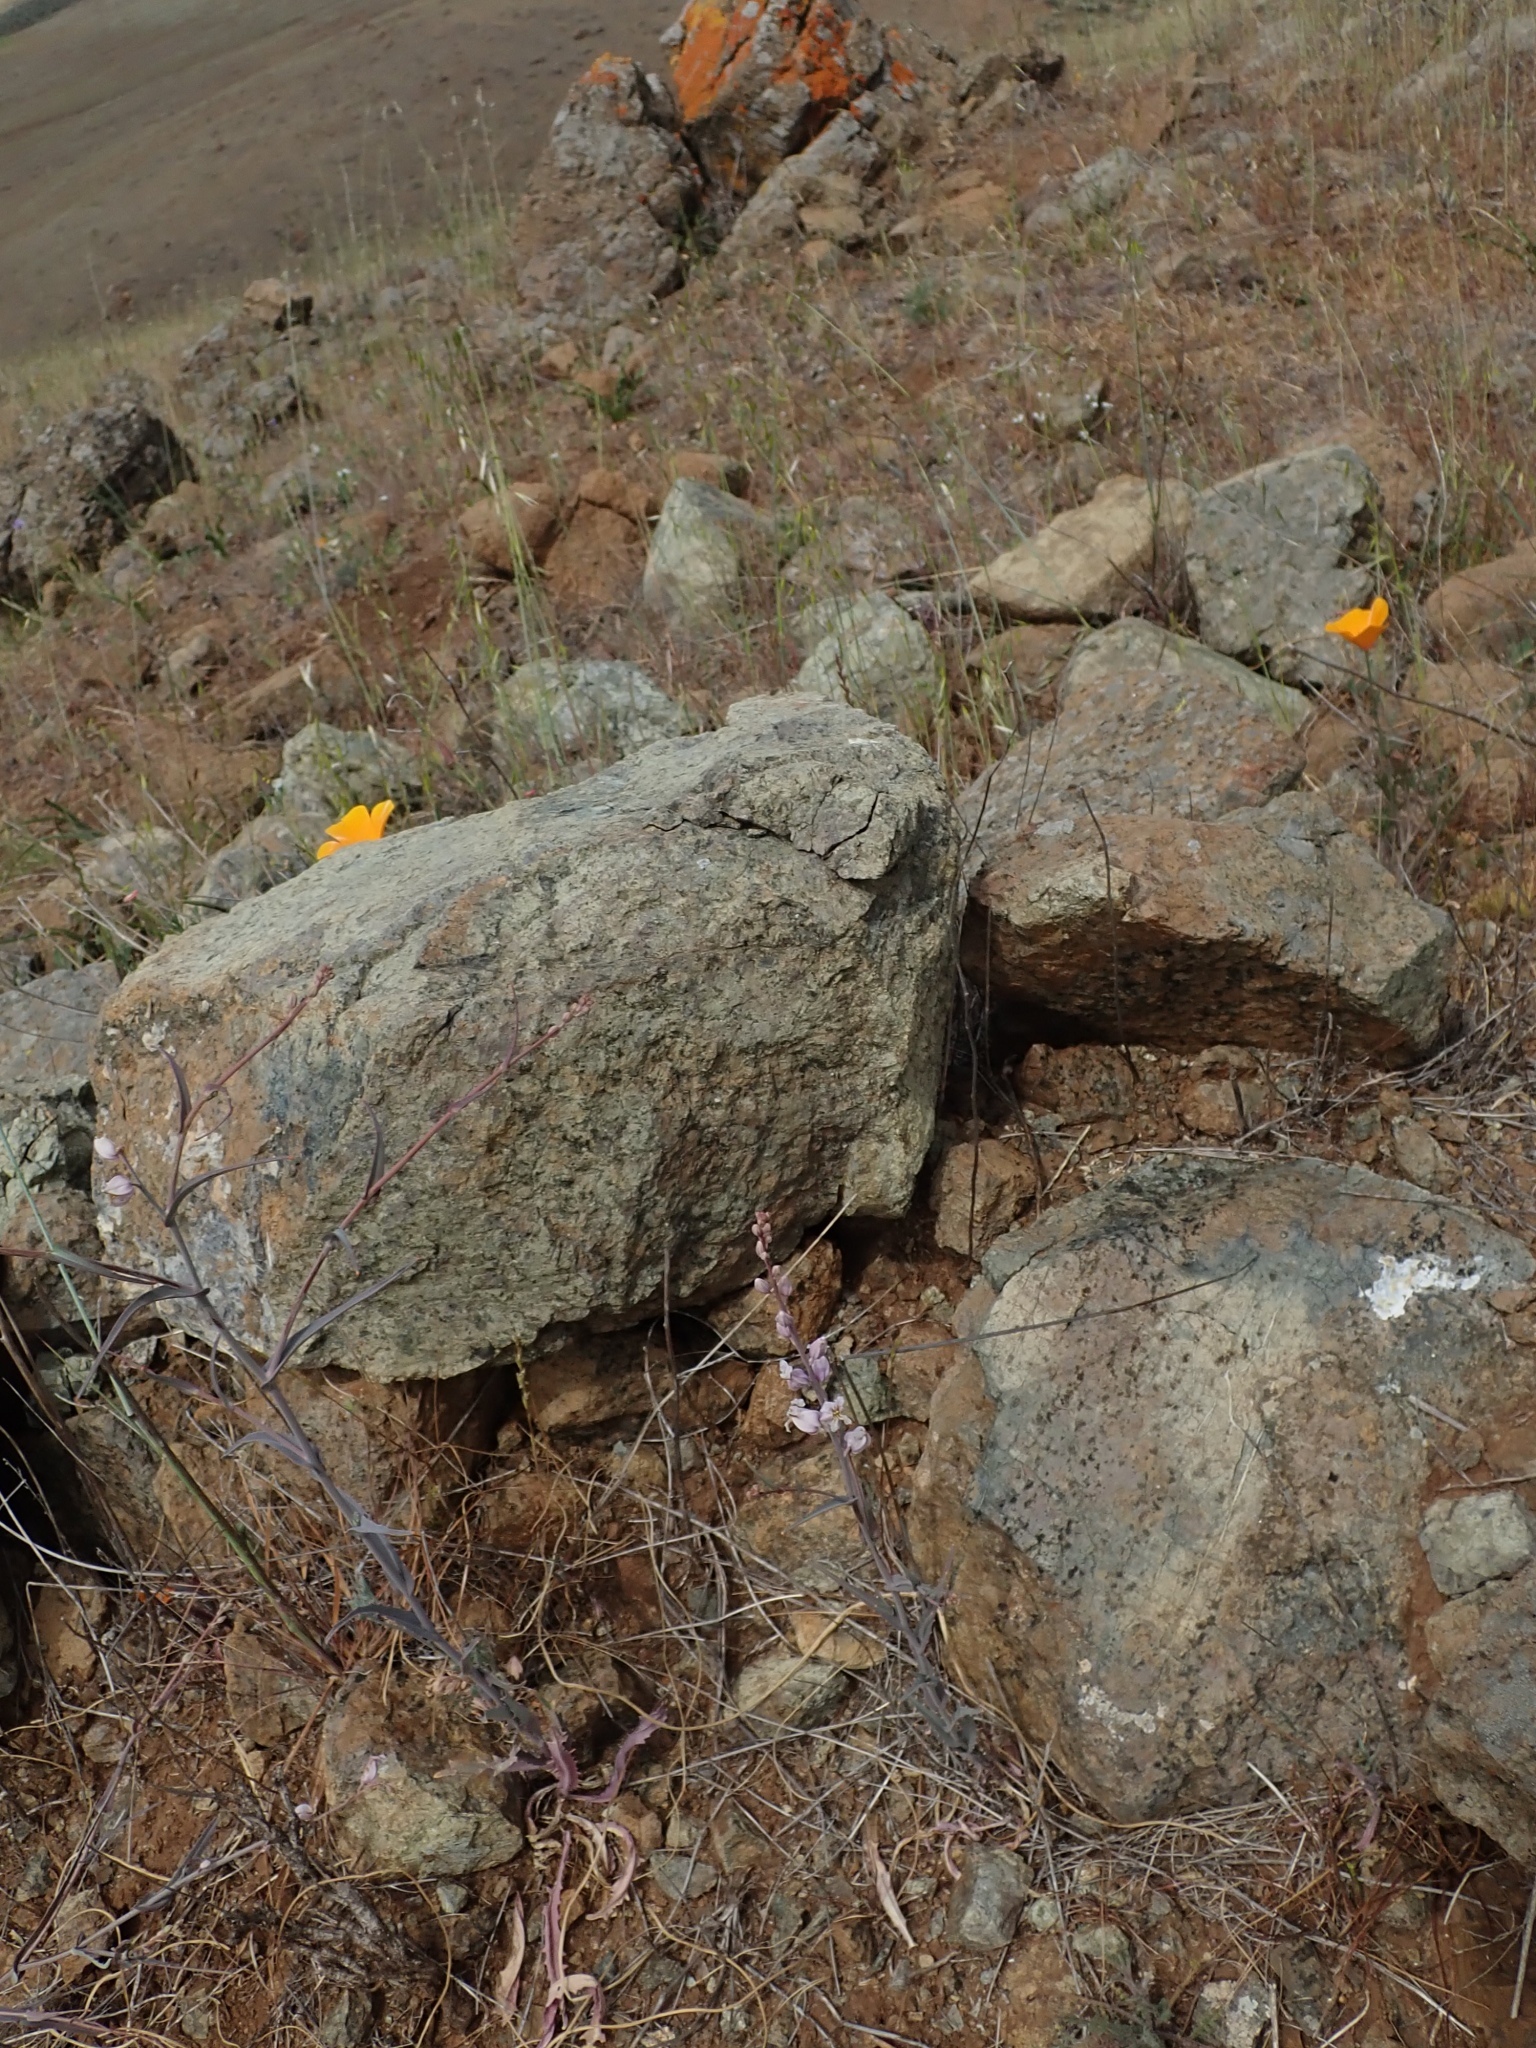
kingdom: Plantae
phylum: Tracheophyta
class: Magnoliopsida
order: Brassicales
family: Brassicaceae
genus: Streptanthus
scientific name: Streptanthus glandulosus
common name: Jewel-flower
